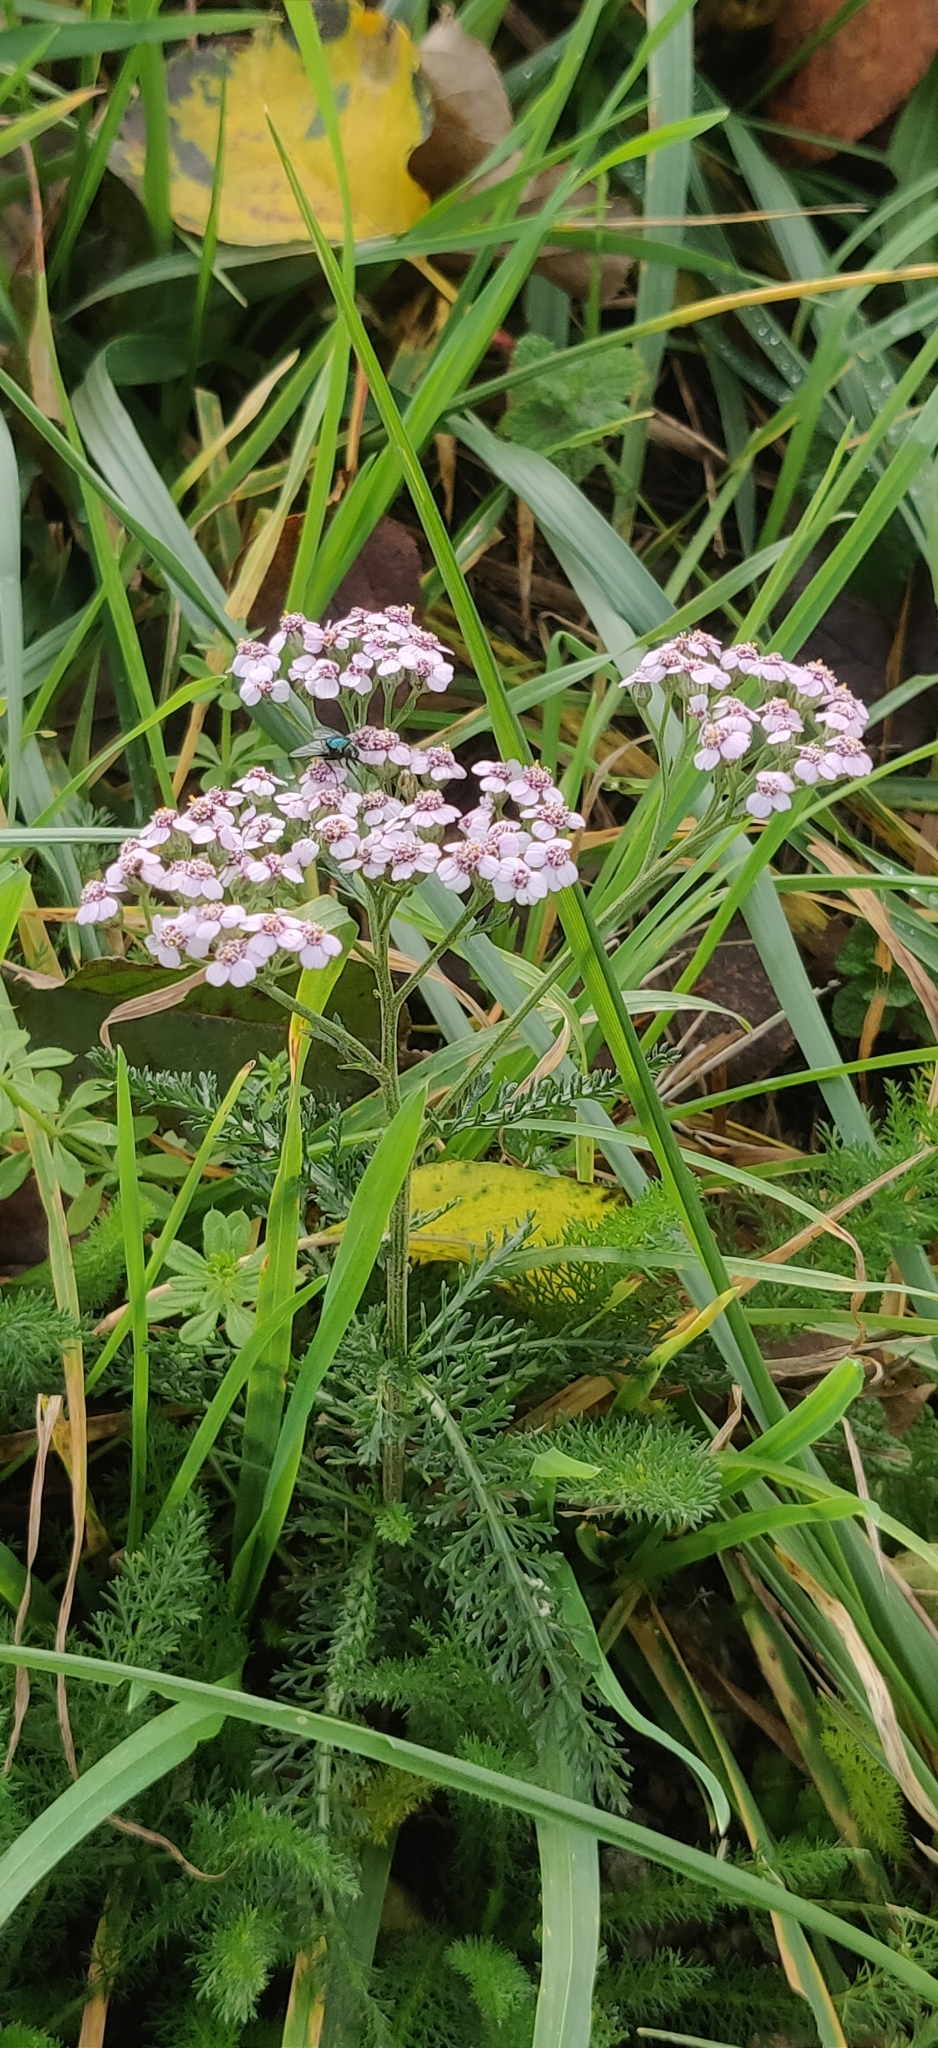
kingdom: Plantae
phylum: Tracheophyta
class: Magnoliopsida
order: Asterales
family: Asteraceae
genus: Achillea
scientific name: Achillea millefolium
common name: Yarrow
